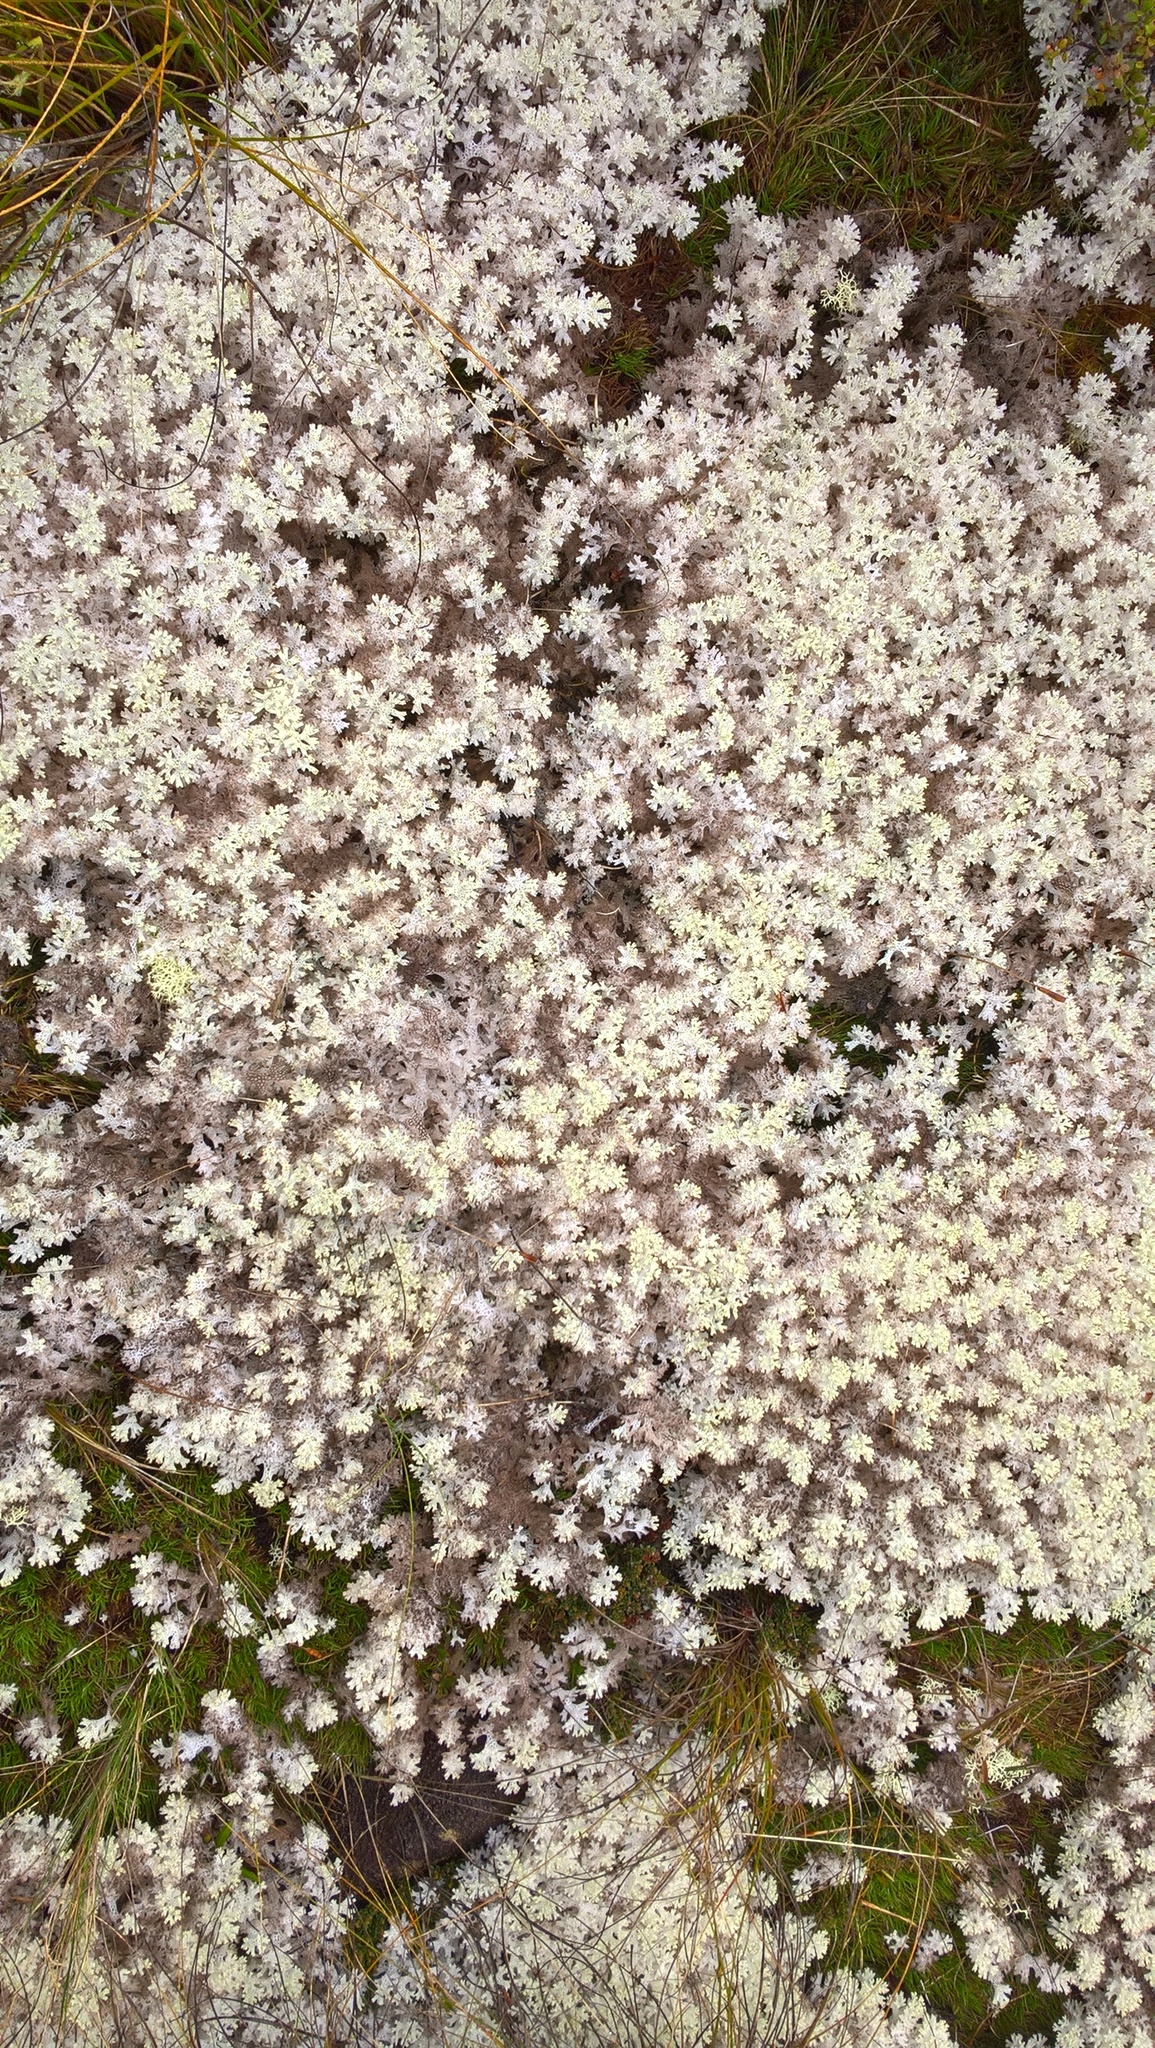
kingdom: Fungi
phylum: Ascomycota
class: Lecanoromycetes
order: Lecanorales
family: Cladoniaceae
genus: Pulchrocladia
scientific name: Pulchrocladia retipora
